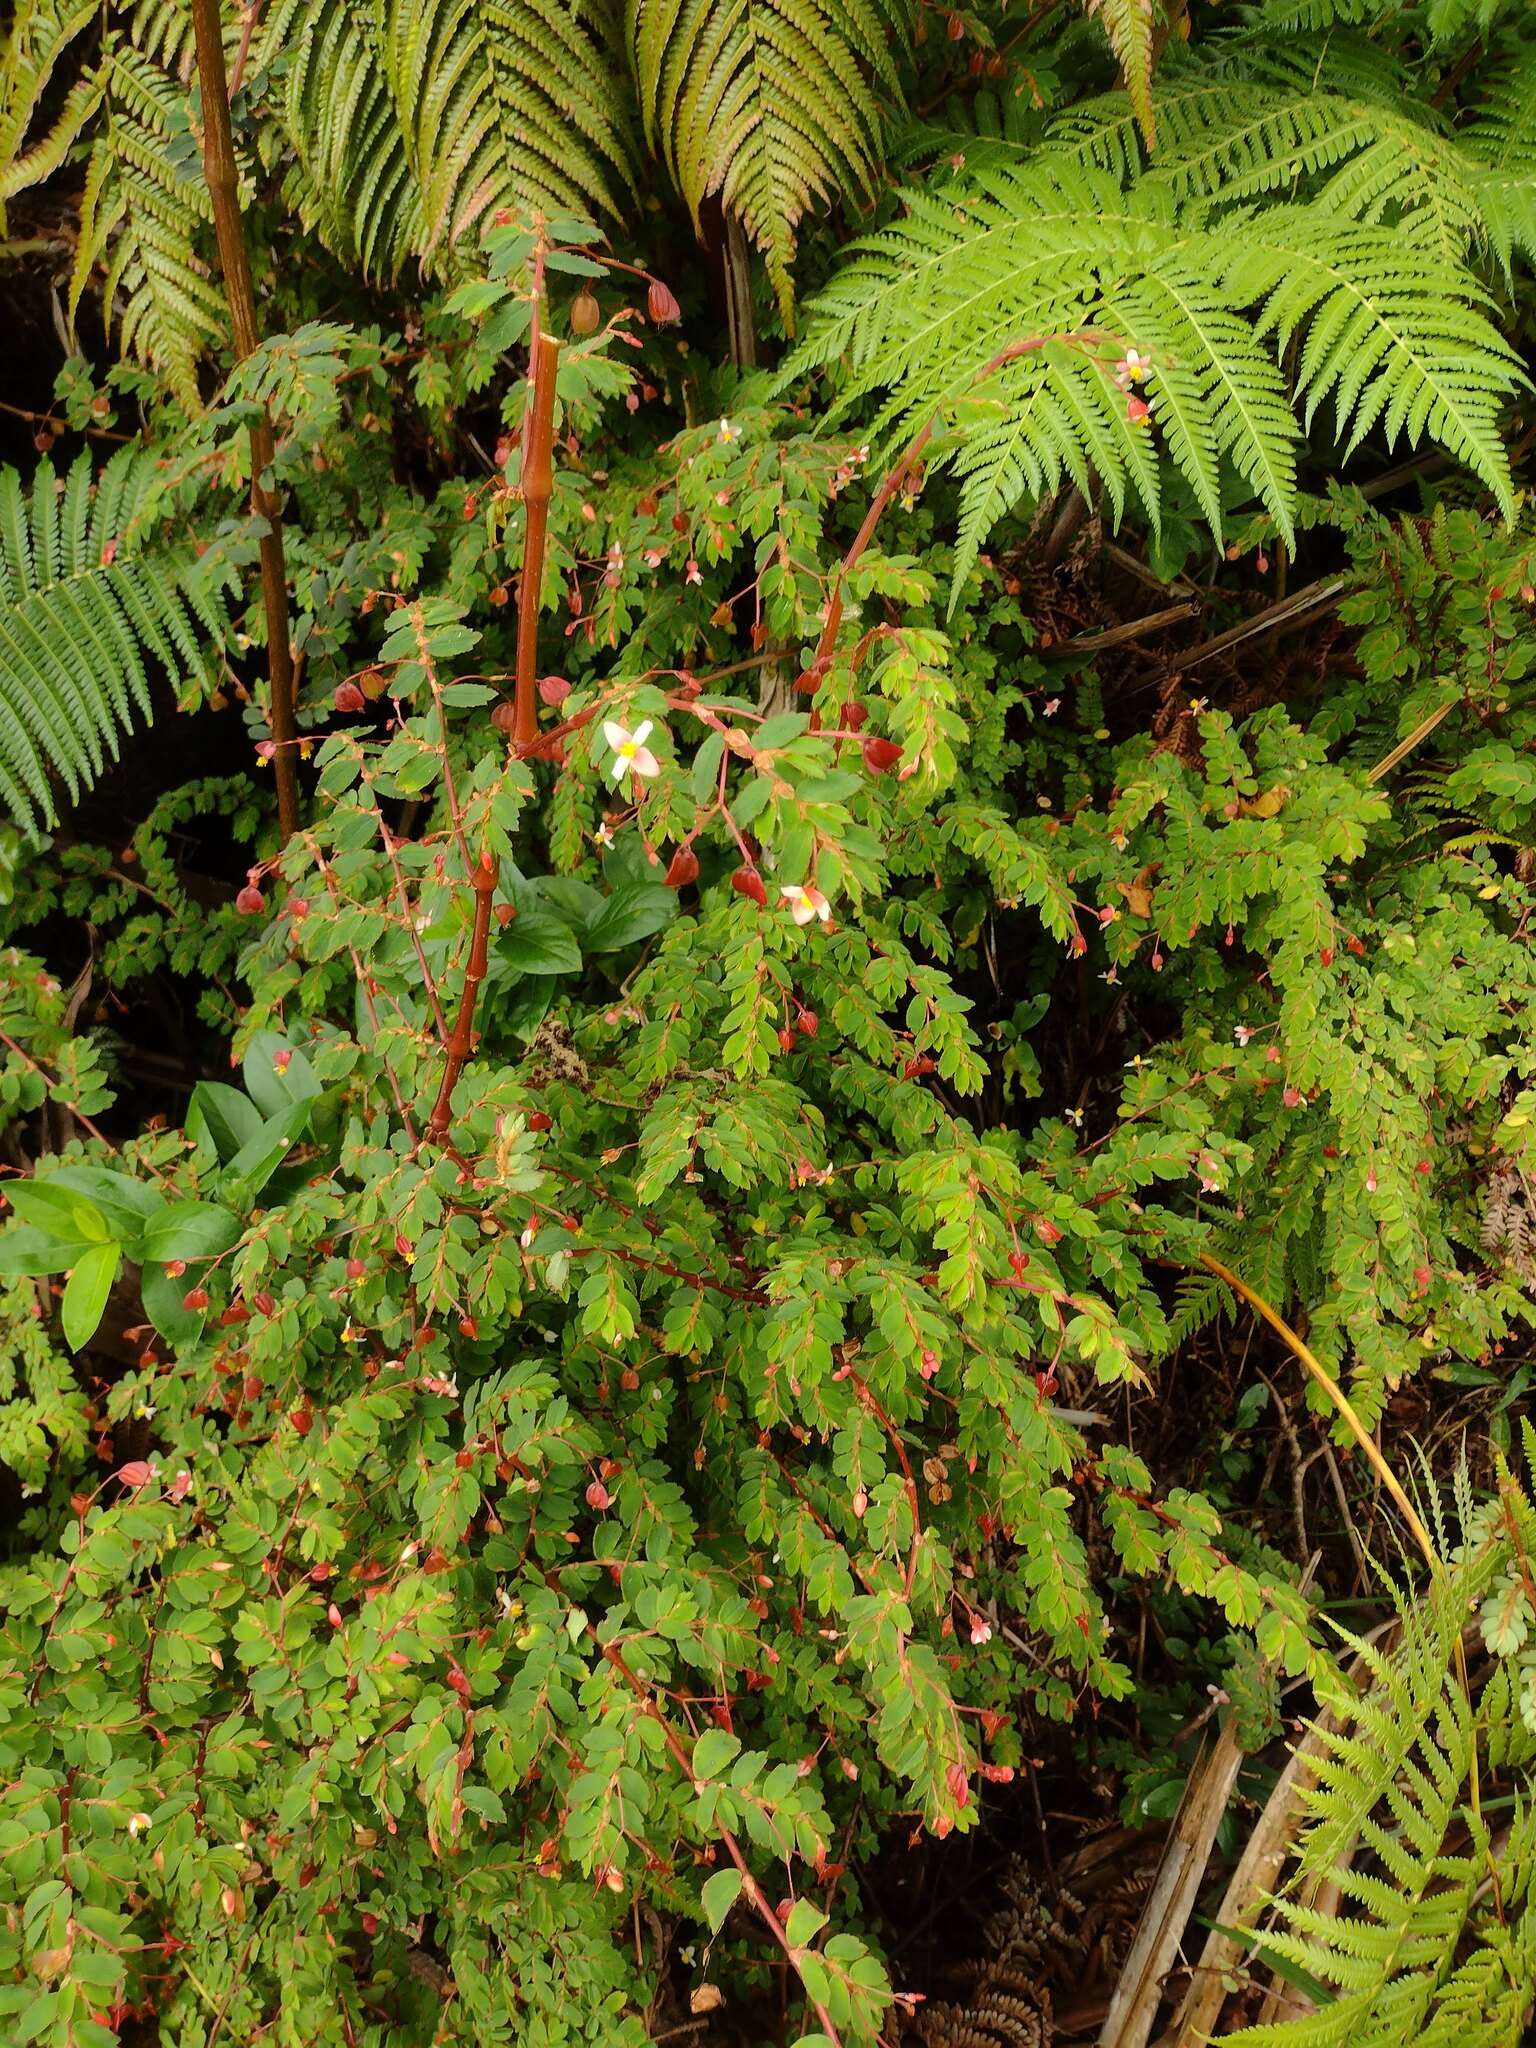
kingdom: Plantae
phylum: Tracheophyta
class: Magnoliopsida
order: Cucurbitales
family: Begoniaceae
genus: Begonia
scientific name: Begonia foliosa
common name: Fern begonia
